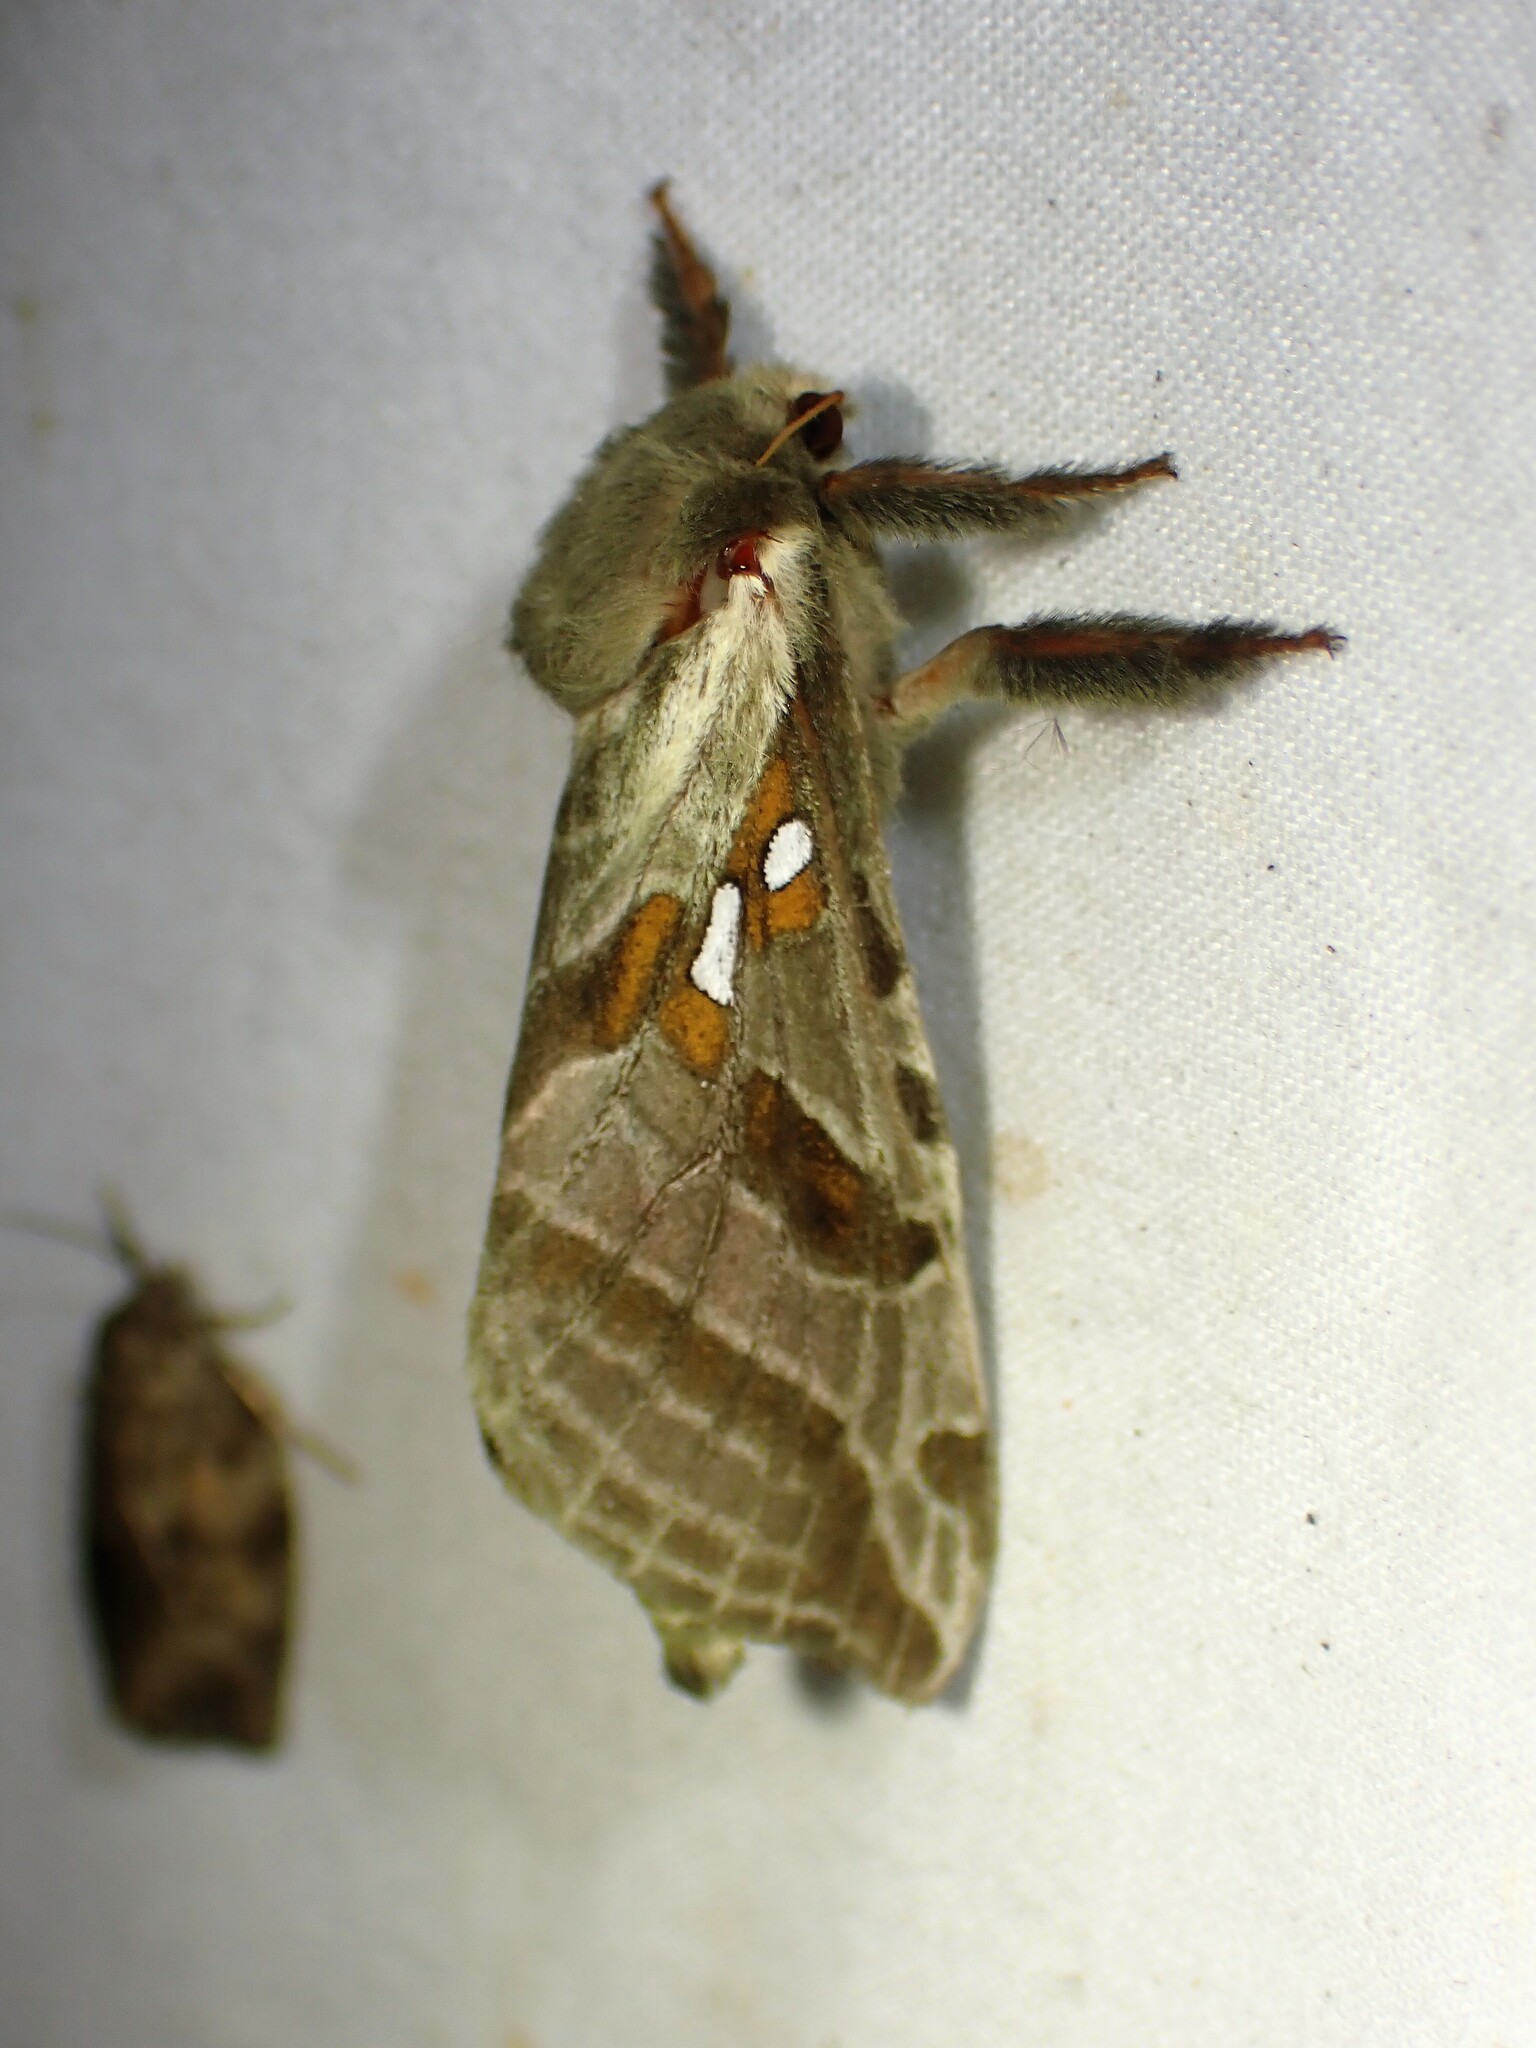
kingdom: Animalia
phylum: Arthropoda
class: Insecta
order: Lepidoptera
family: Hepialidae
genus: Sthenopis
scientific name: Sthenopis argenteomaculatus
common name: Silver-spotted ghost moth
